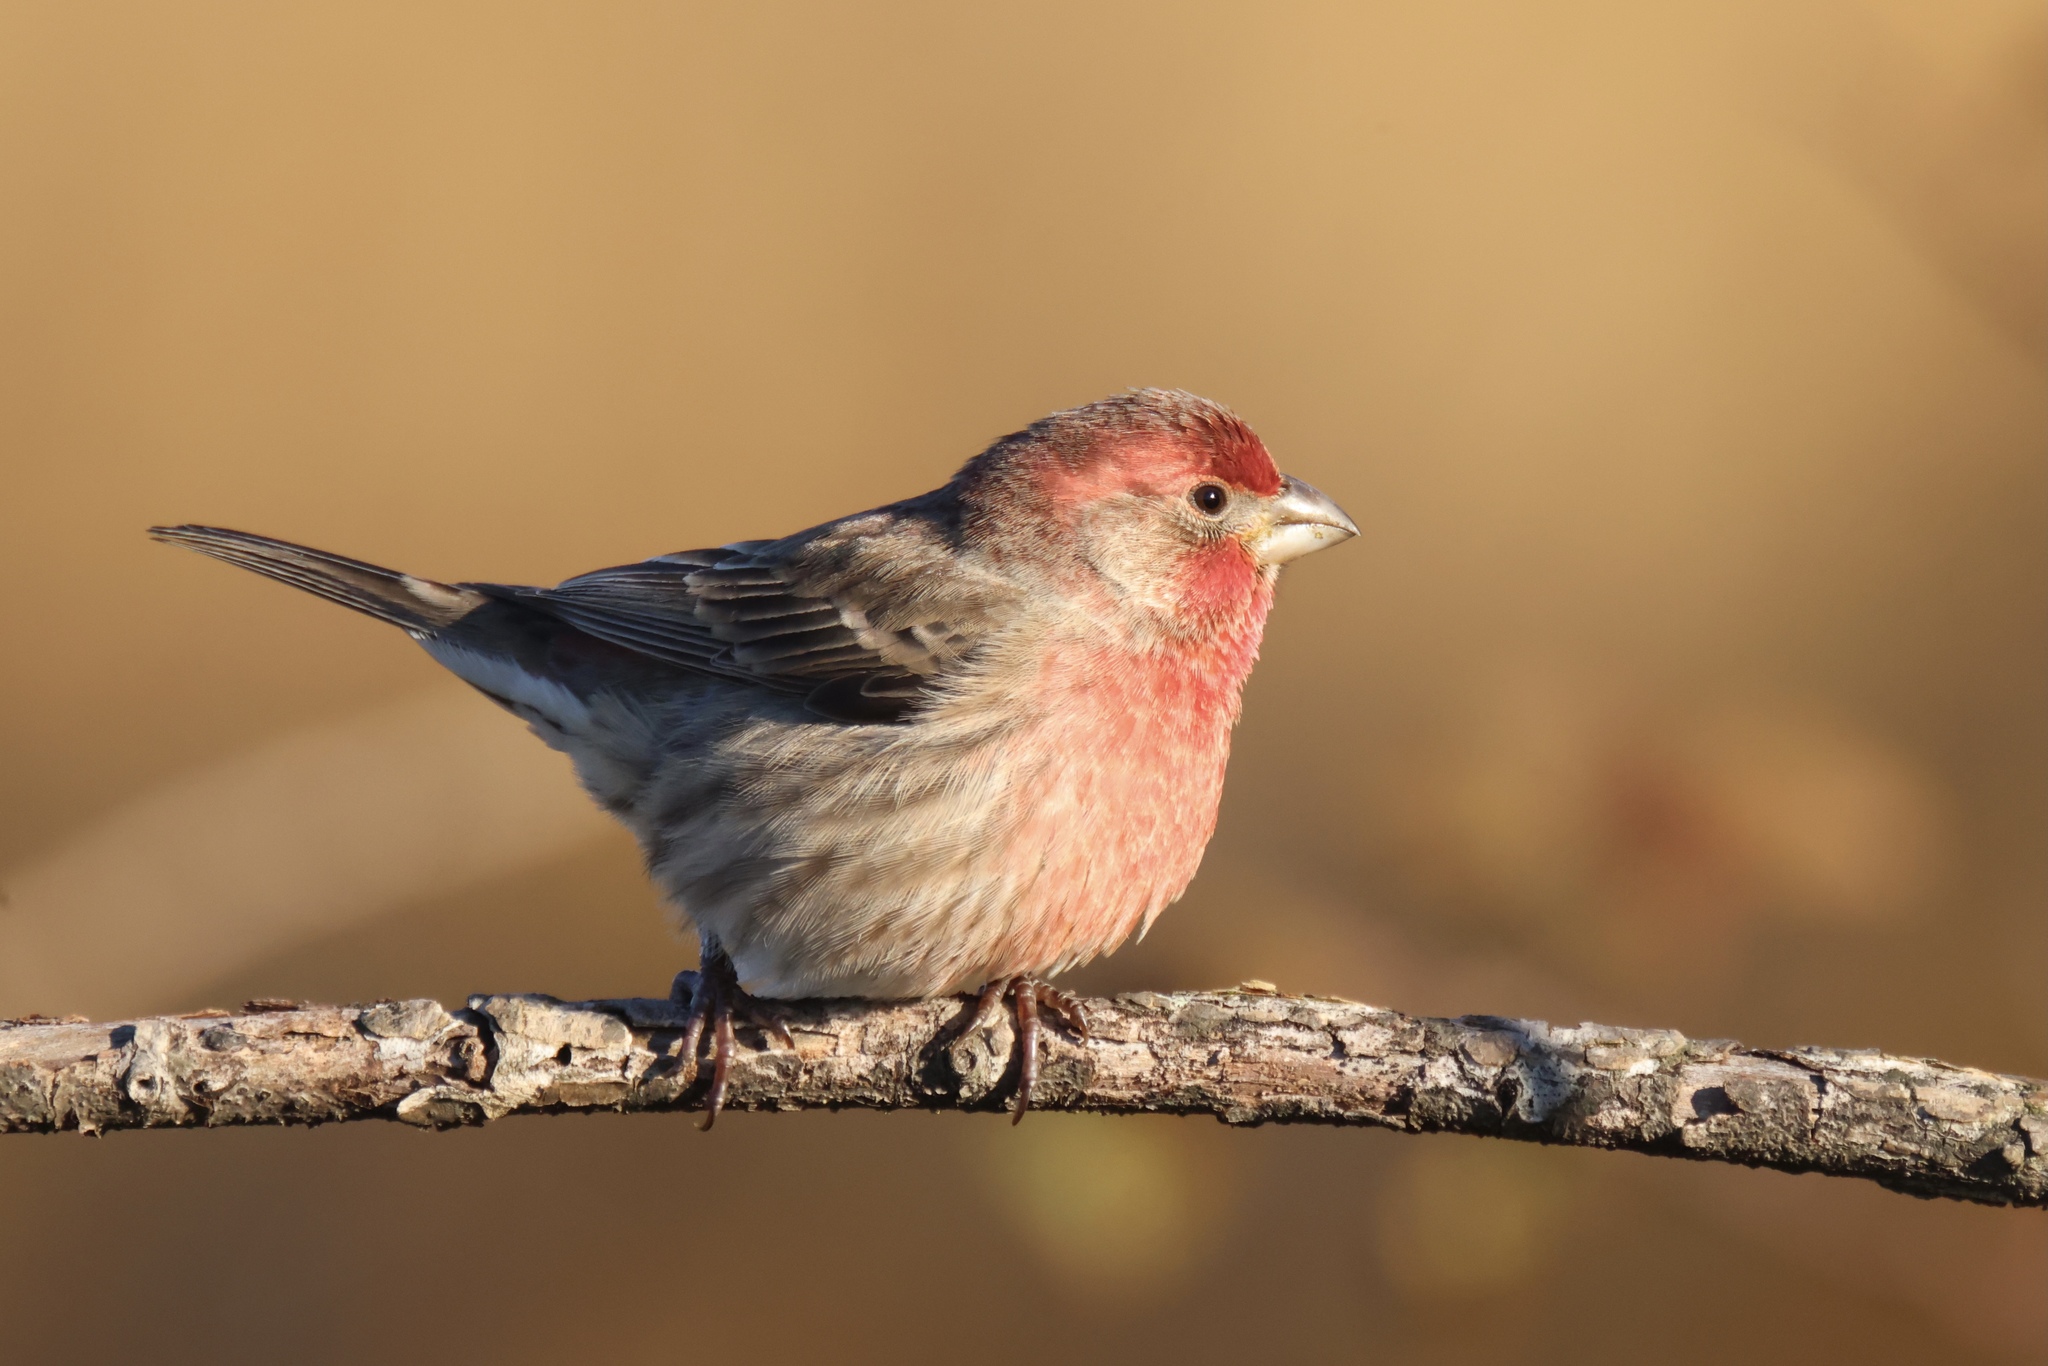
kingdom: Animalia
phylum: Chordata
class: Aves
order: Passeriformes
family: Fringillidae
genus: Haemorhous
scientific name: Haemorhous mexicanus
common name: House finch
